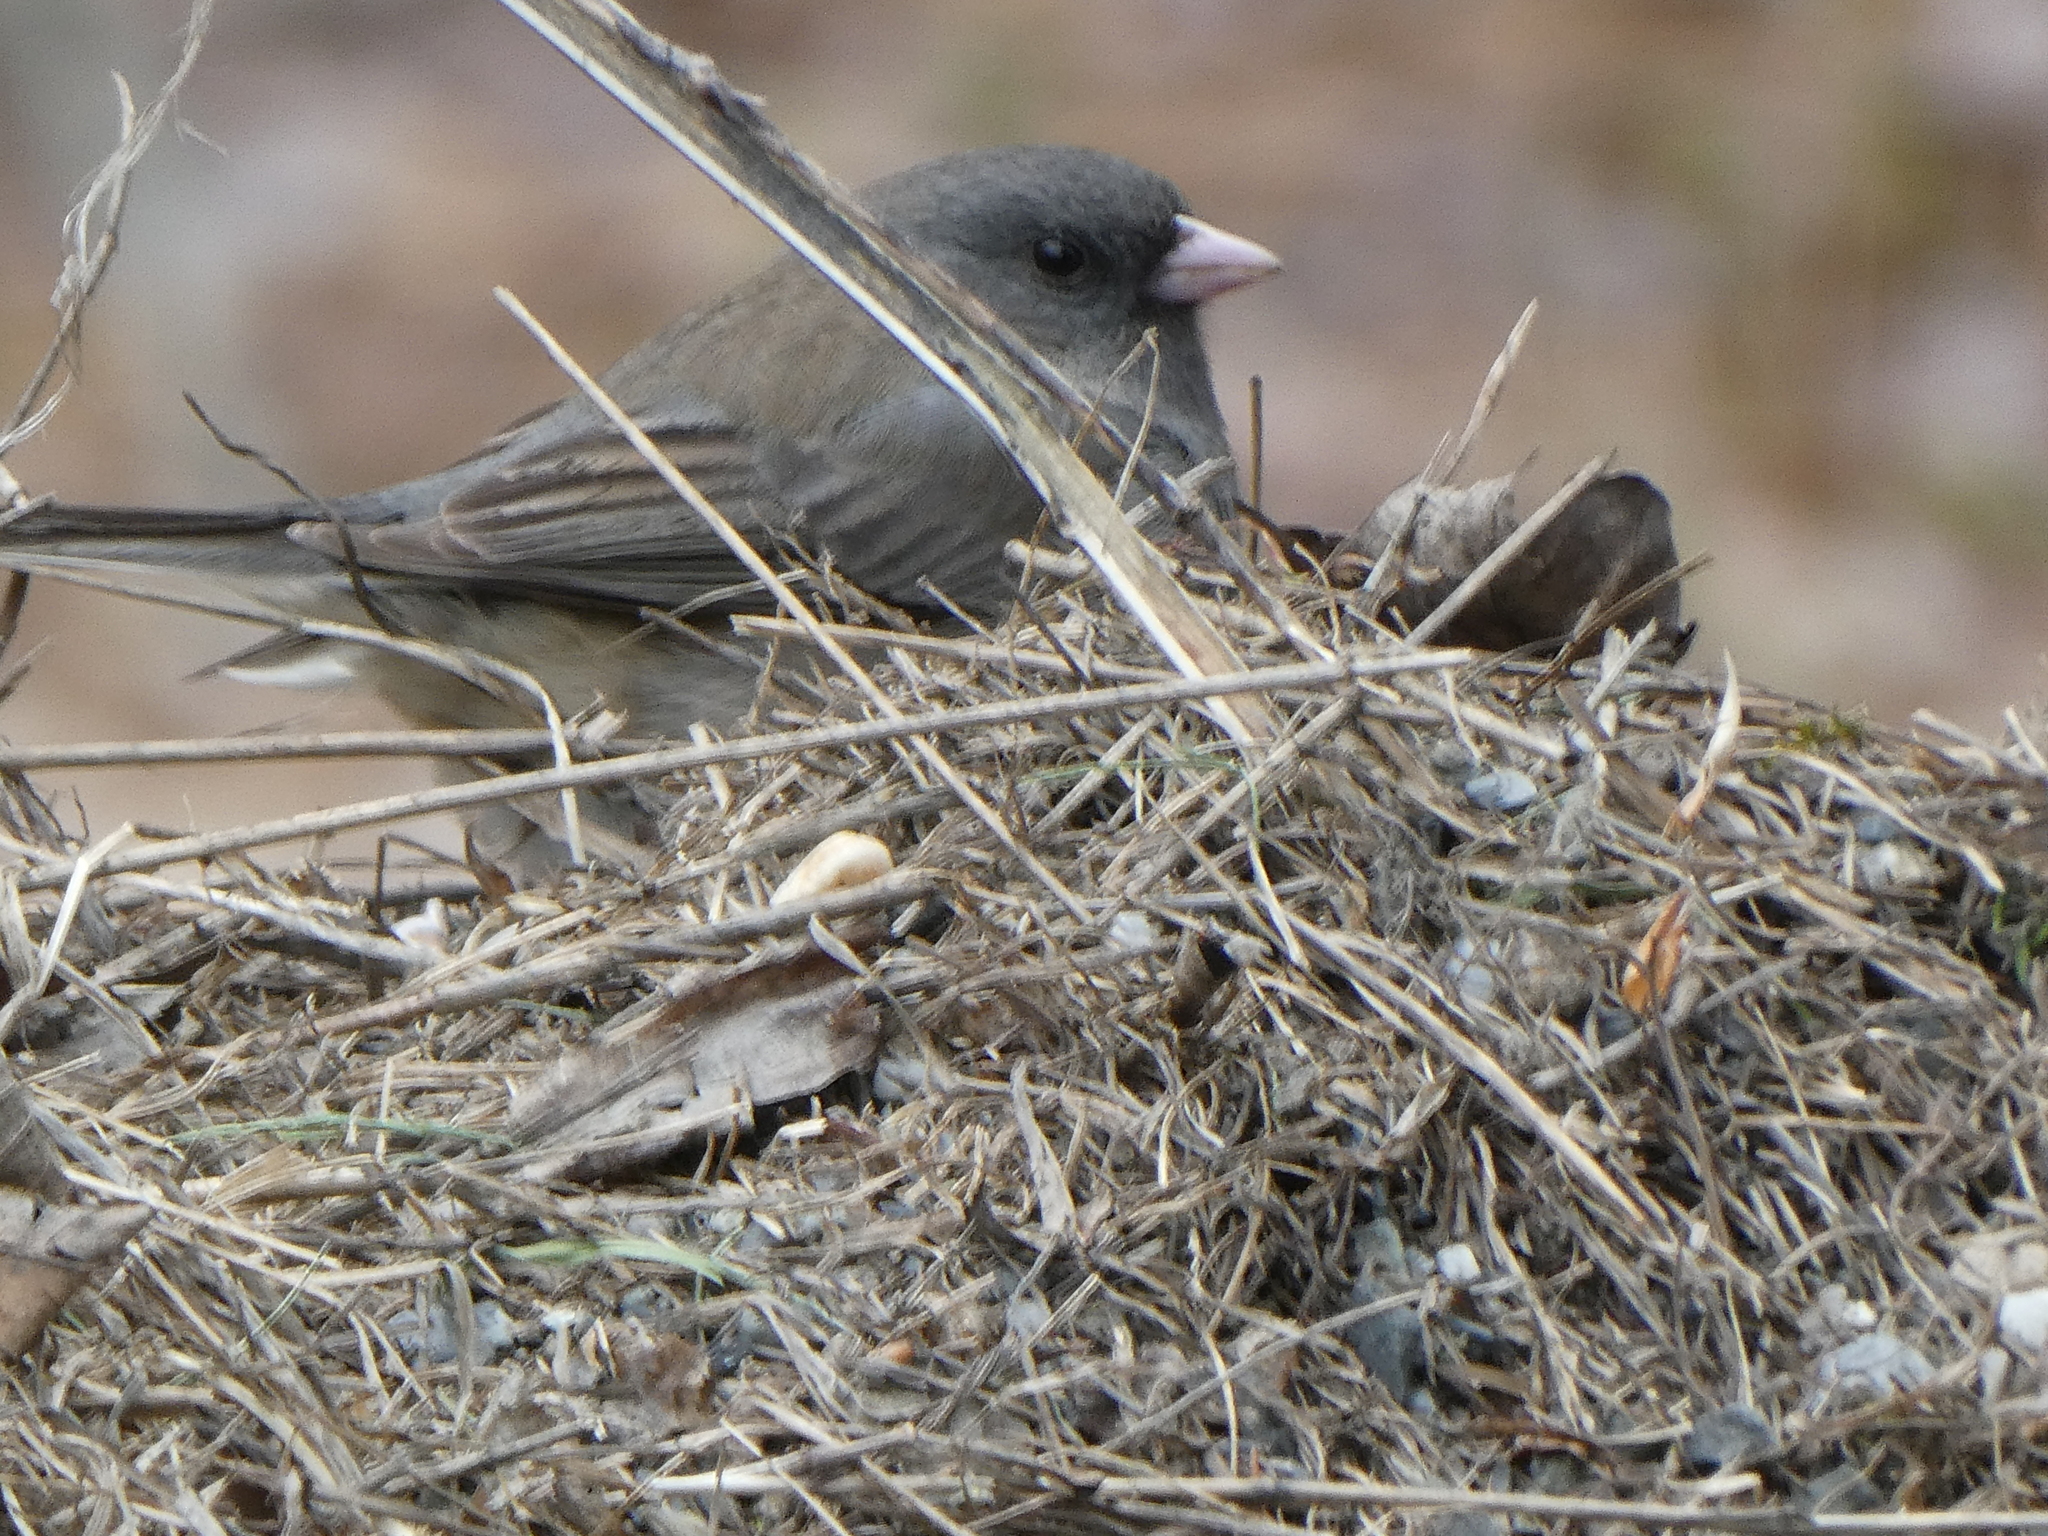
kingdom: Animalia
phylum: Chordata
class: Aves
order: Passeriformes
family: Passerellidae
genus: Junco
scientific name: Junco hyemalis
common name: Dark-eyed junco
